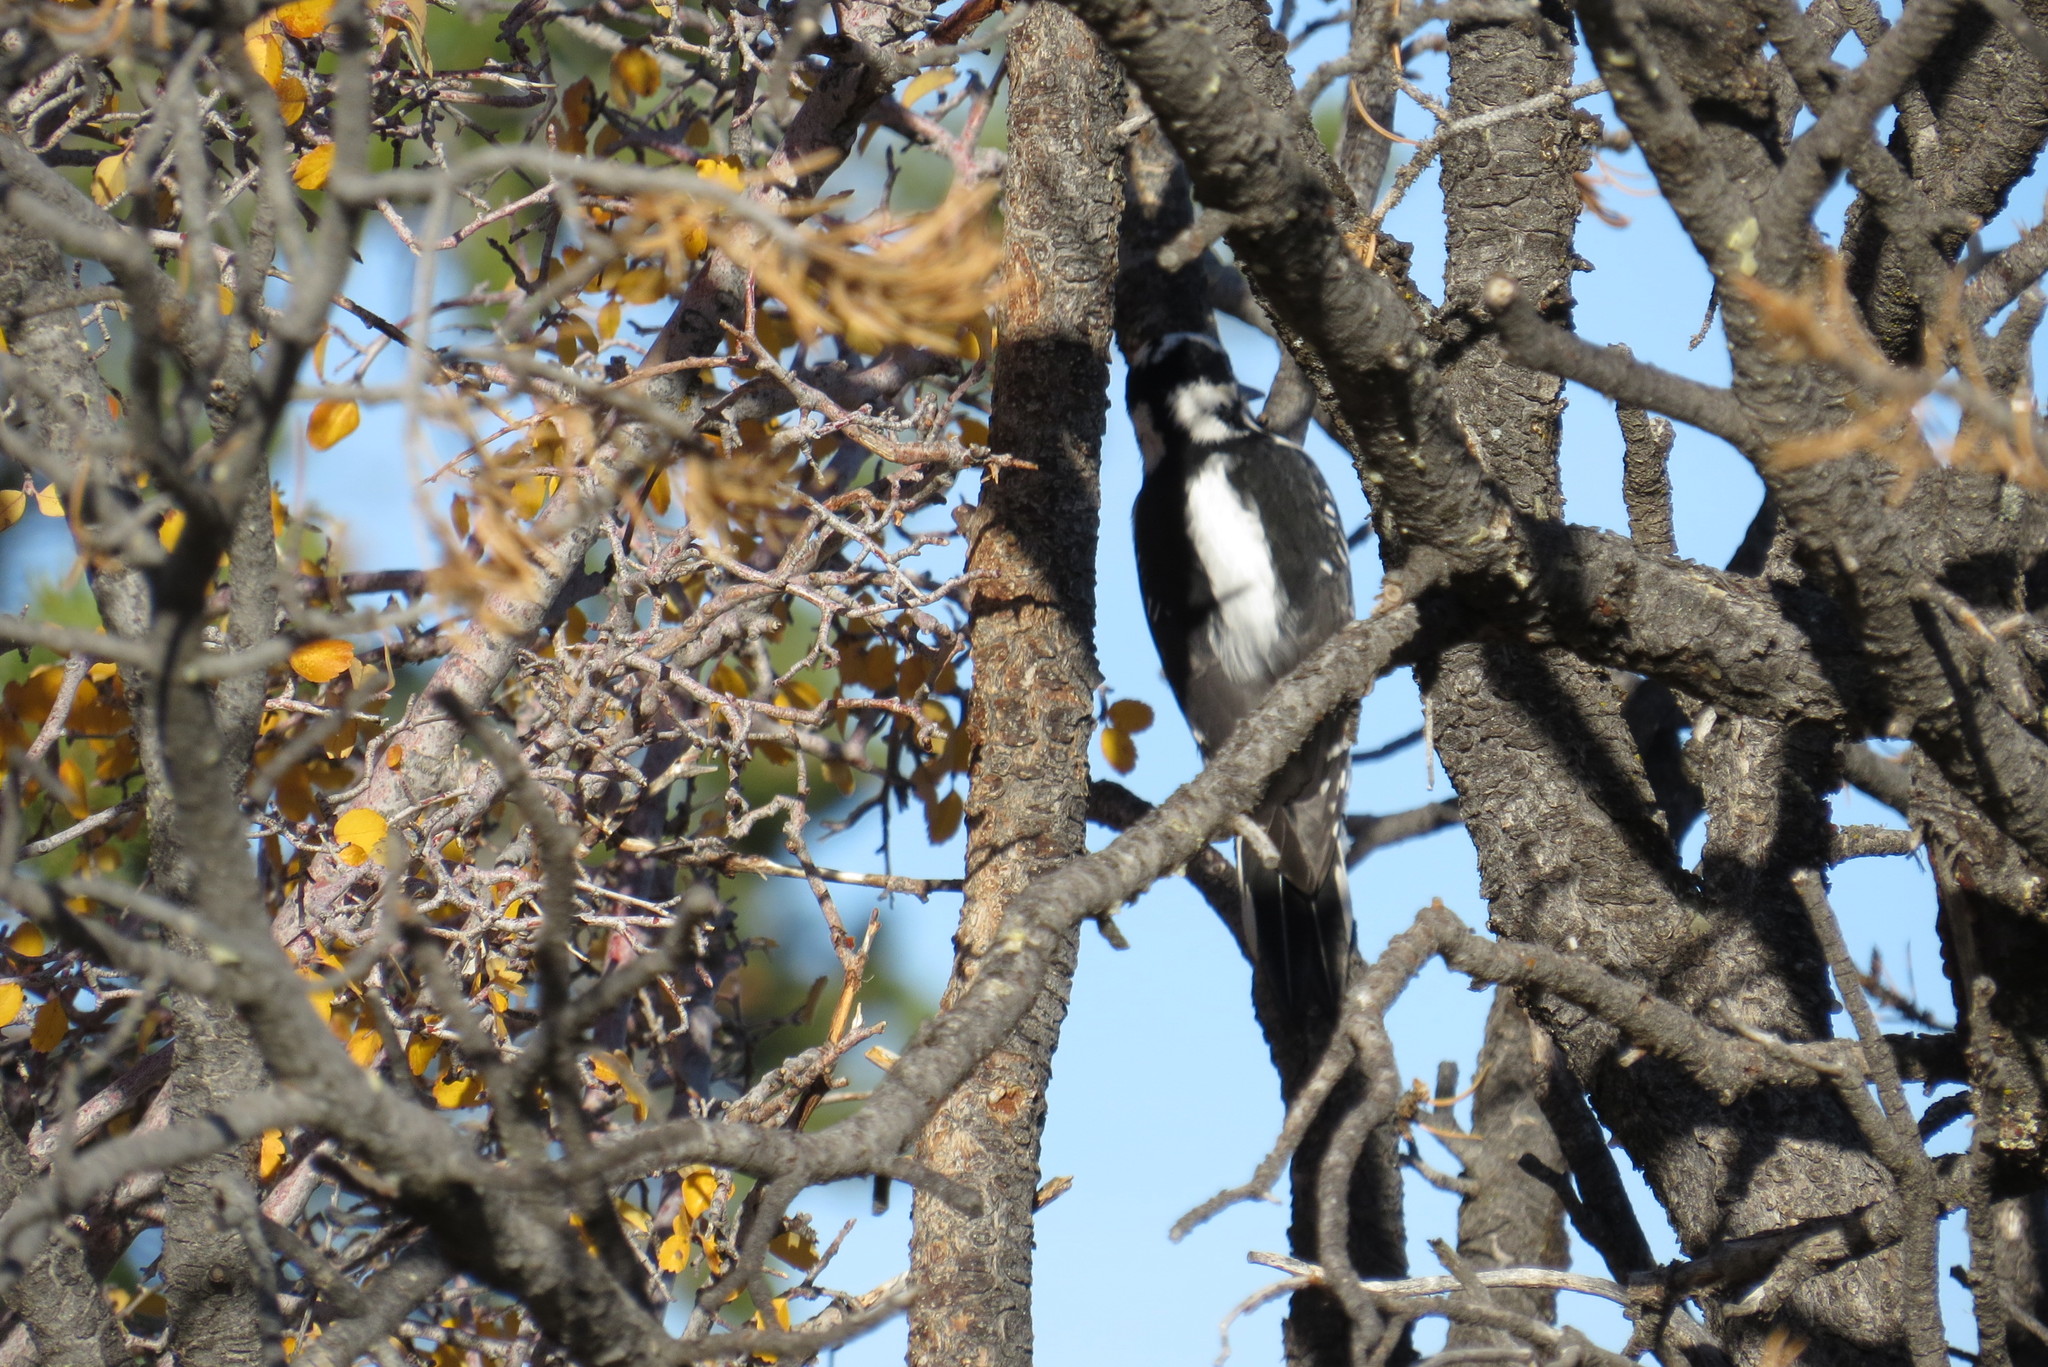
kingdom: Animalia
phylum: Chordata
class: Aves
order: Piciformes
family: Picidae
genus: Leuconotopicus
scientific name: Leuconotopicus villosus
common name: Hairy woodpecker
